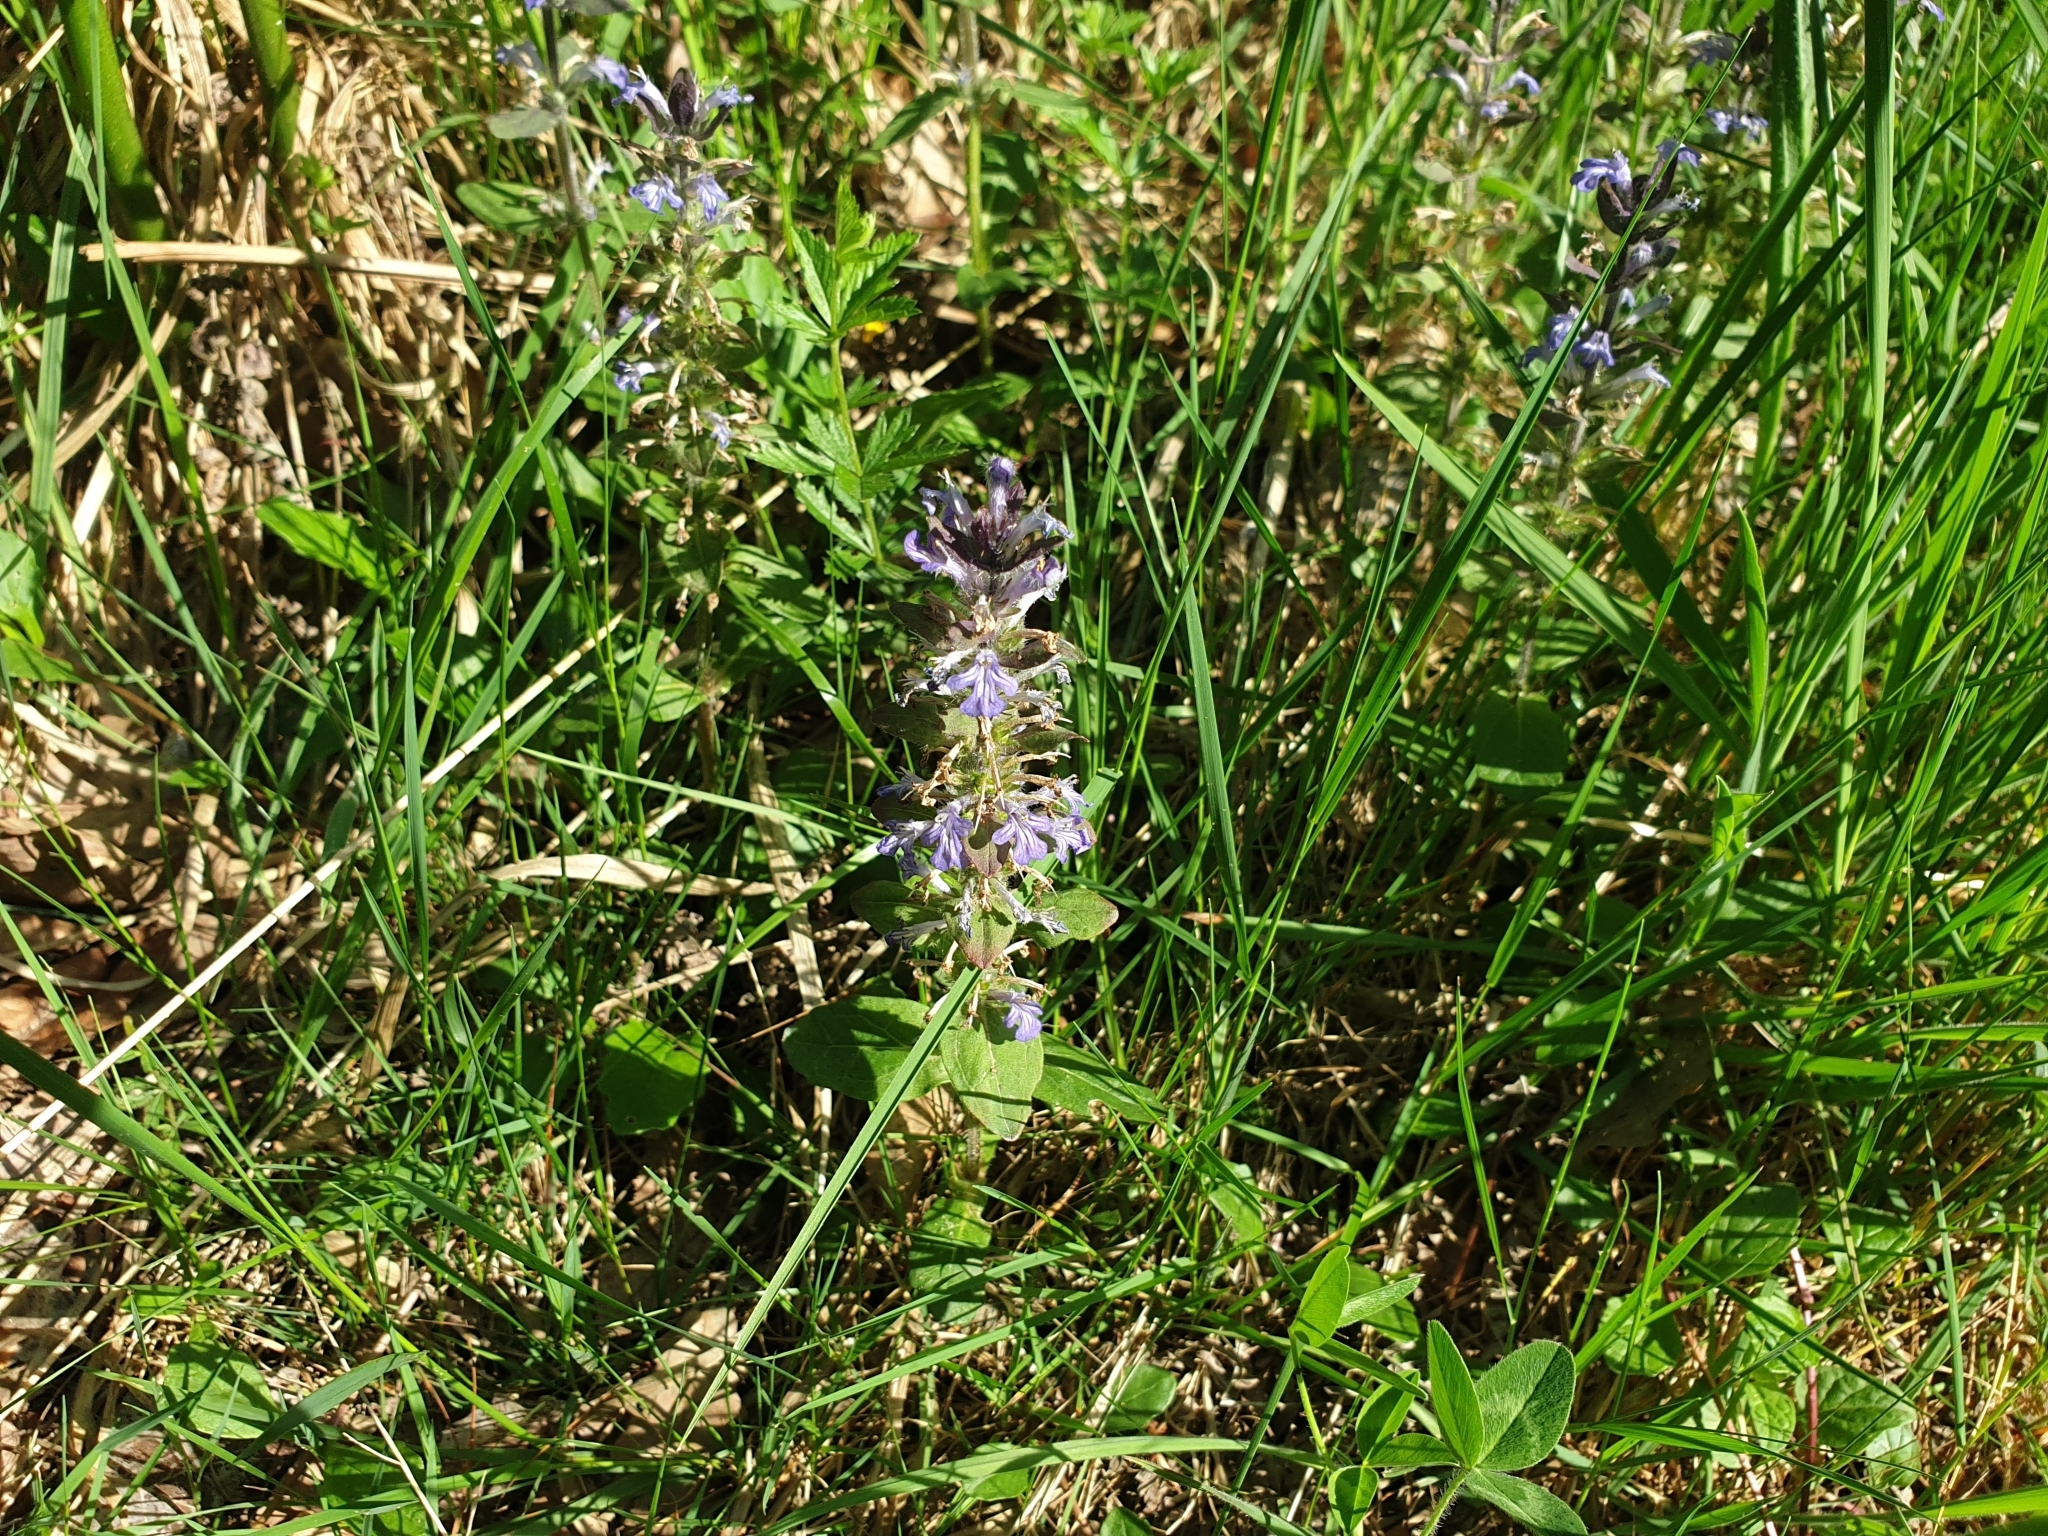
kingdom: Plantae
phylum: Tracheophyta
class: Magnoliopsida
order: Lamiales
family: Lamiaceae
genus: Ajuga
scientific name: Ajuga reptans
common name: Bugle
